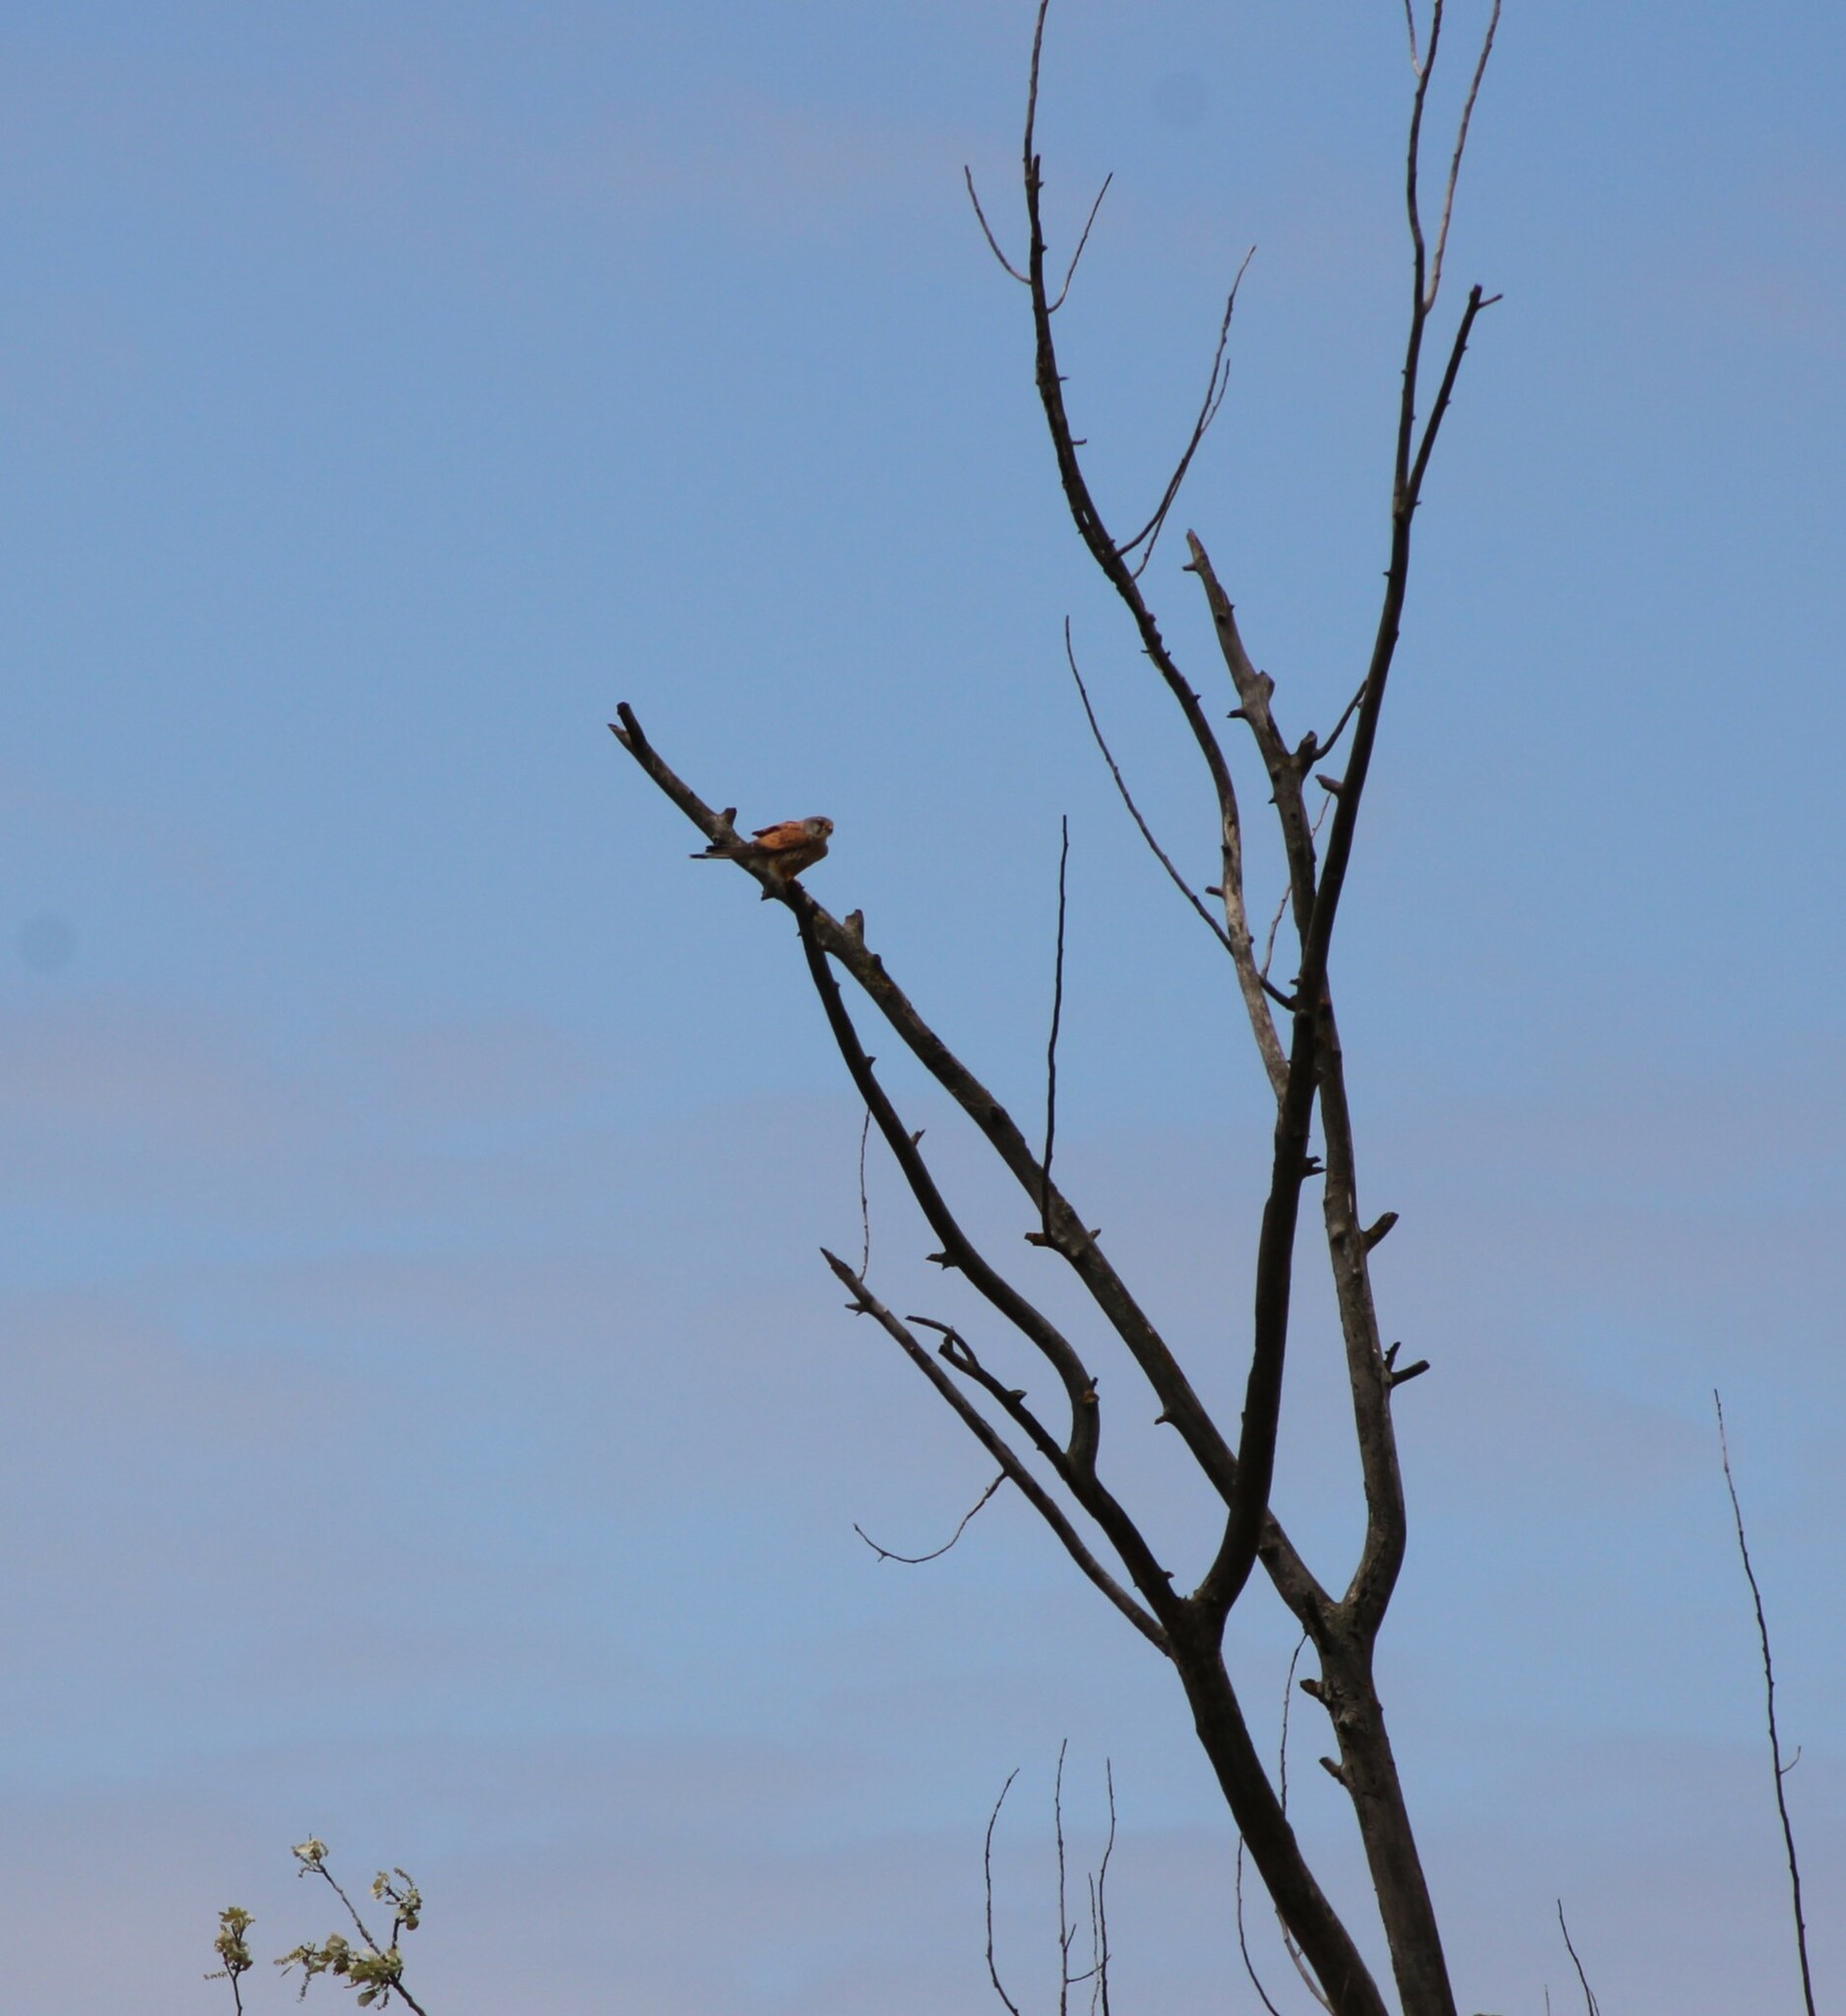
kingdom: Animalia
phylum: Chordata
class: Aves
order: Falconiformes
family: Falconidae
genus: Falco
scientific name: Falco tinnunculus
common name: Common kestrel
